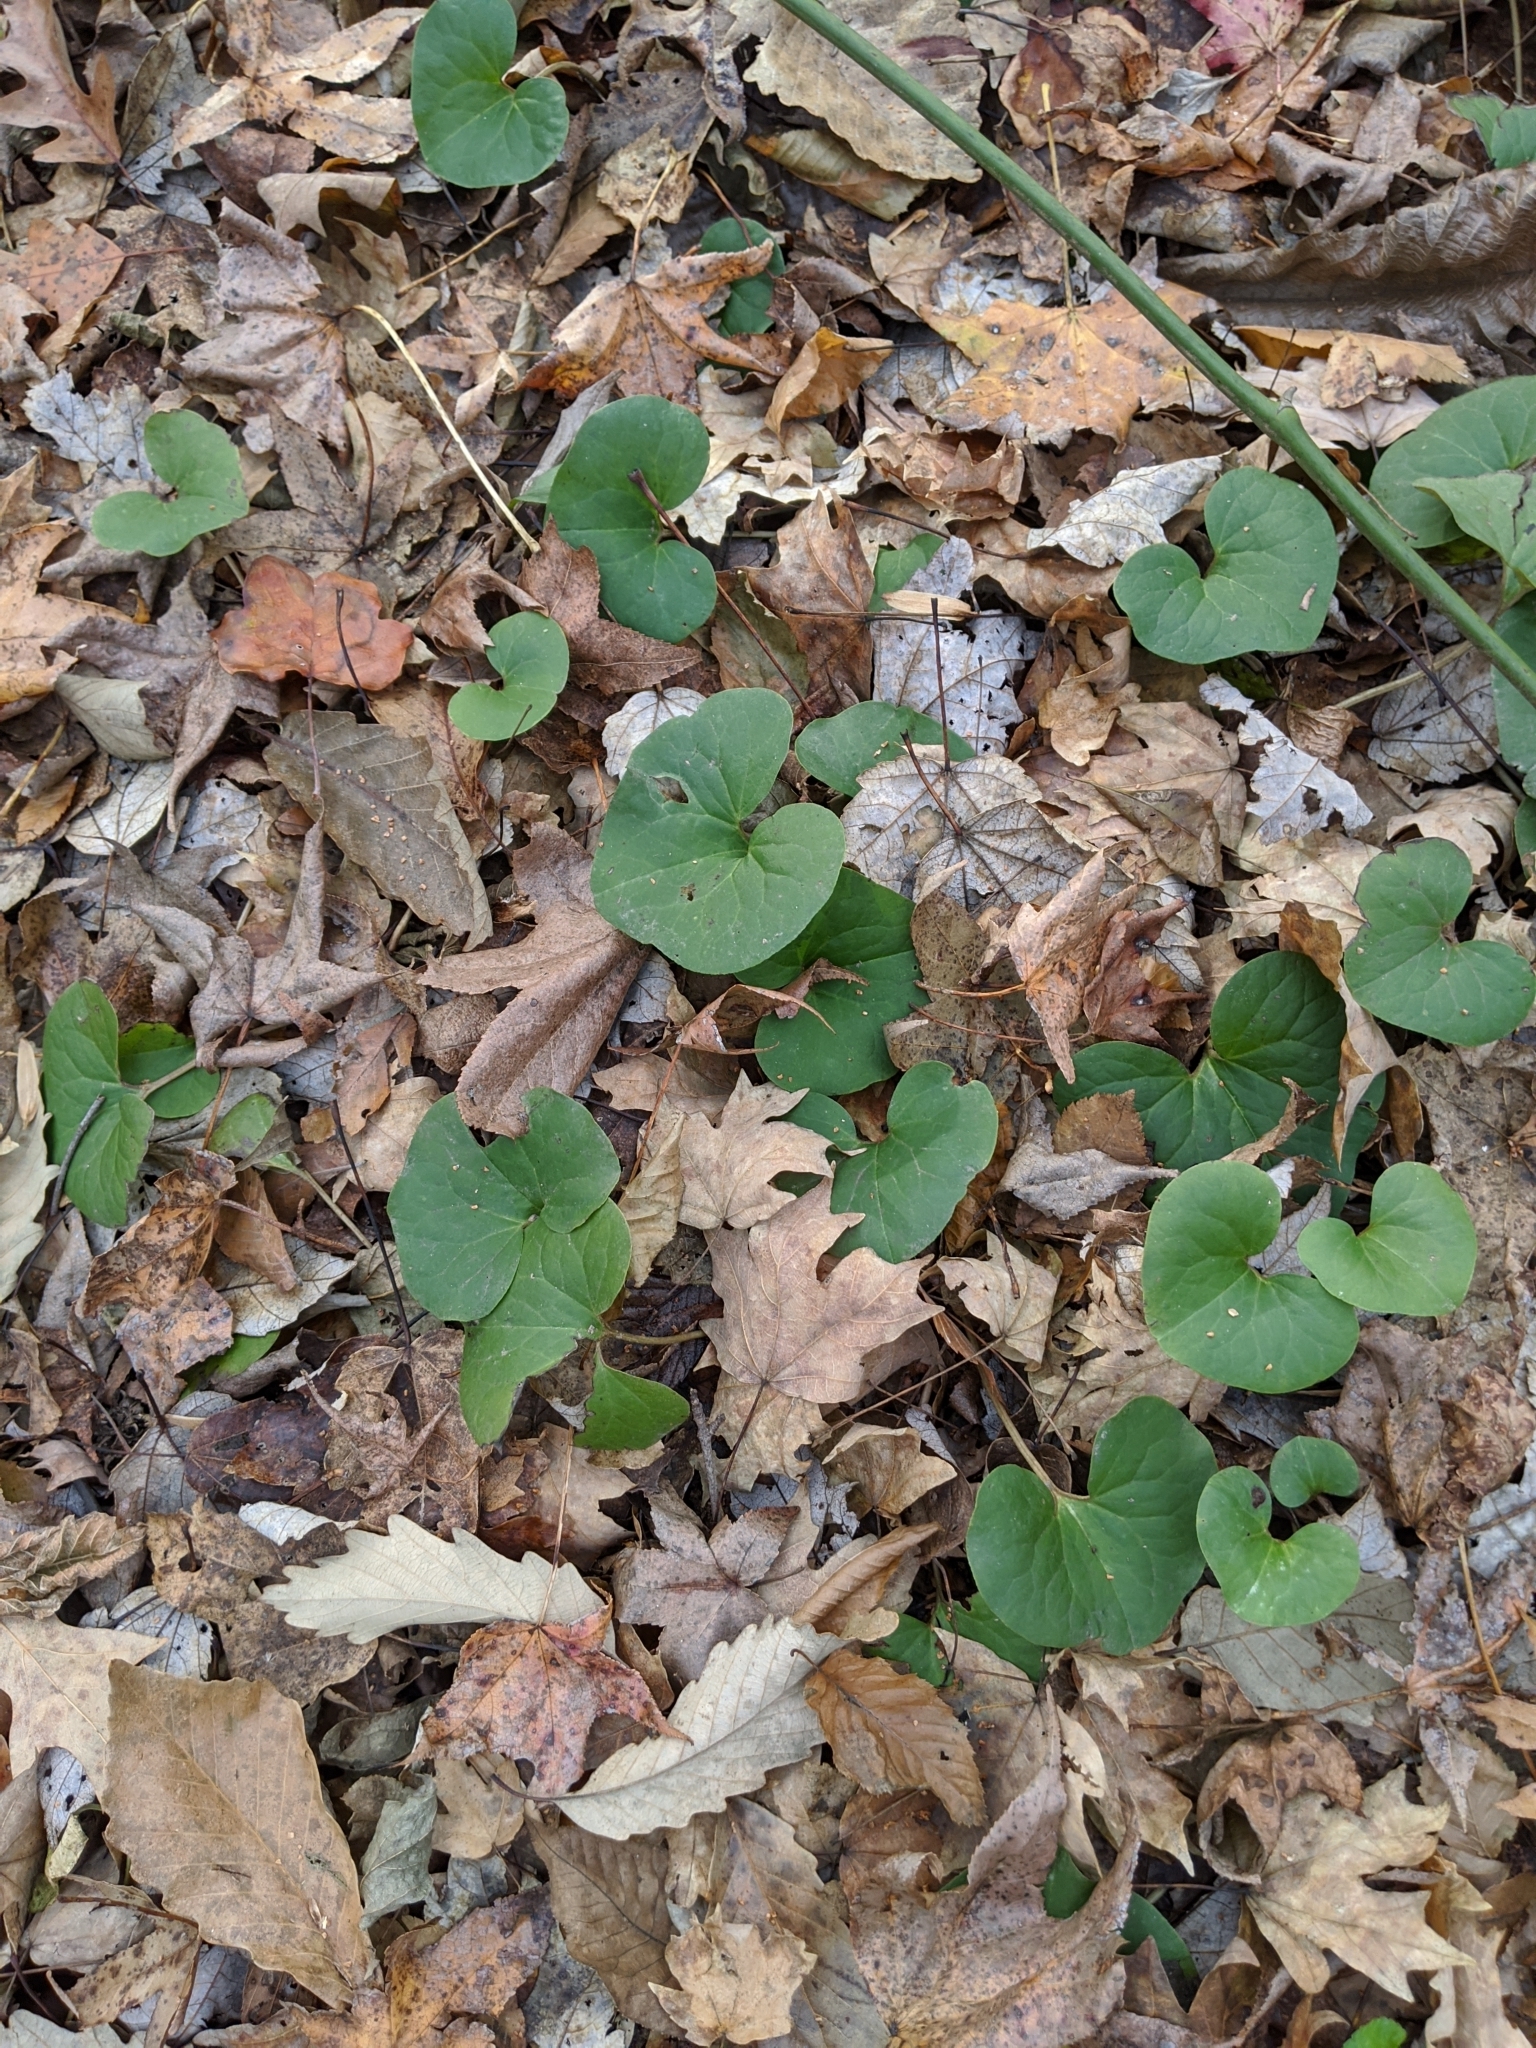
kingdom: Plantae
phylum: Tracheophyta
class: Magnoliopsida
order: Piperales
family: Aristolochiaceae
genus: Asarum
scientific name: Asarum canadense
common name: Wild ginger
